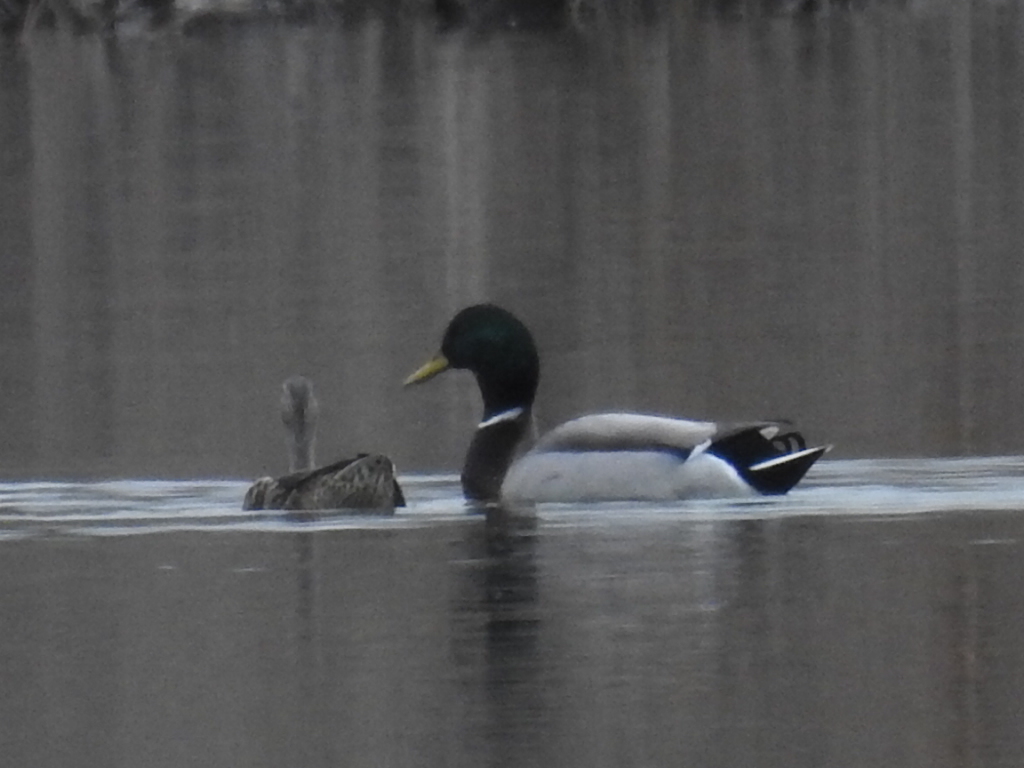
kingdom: Animalia
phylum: Chordata
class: Aves
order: Anseriformes
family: Anatidae
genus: Anas
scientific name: Anas platyrhynchos
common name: Mallard
